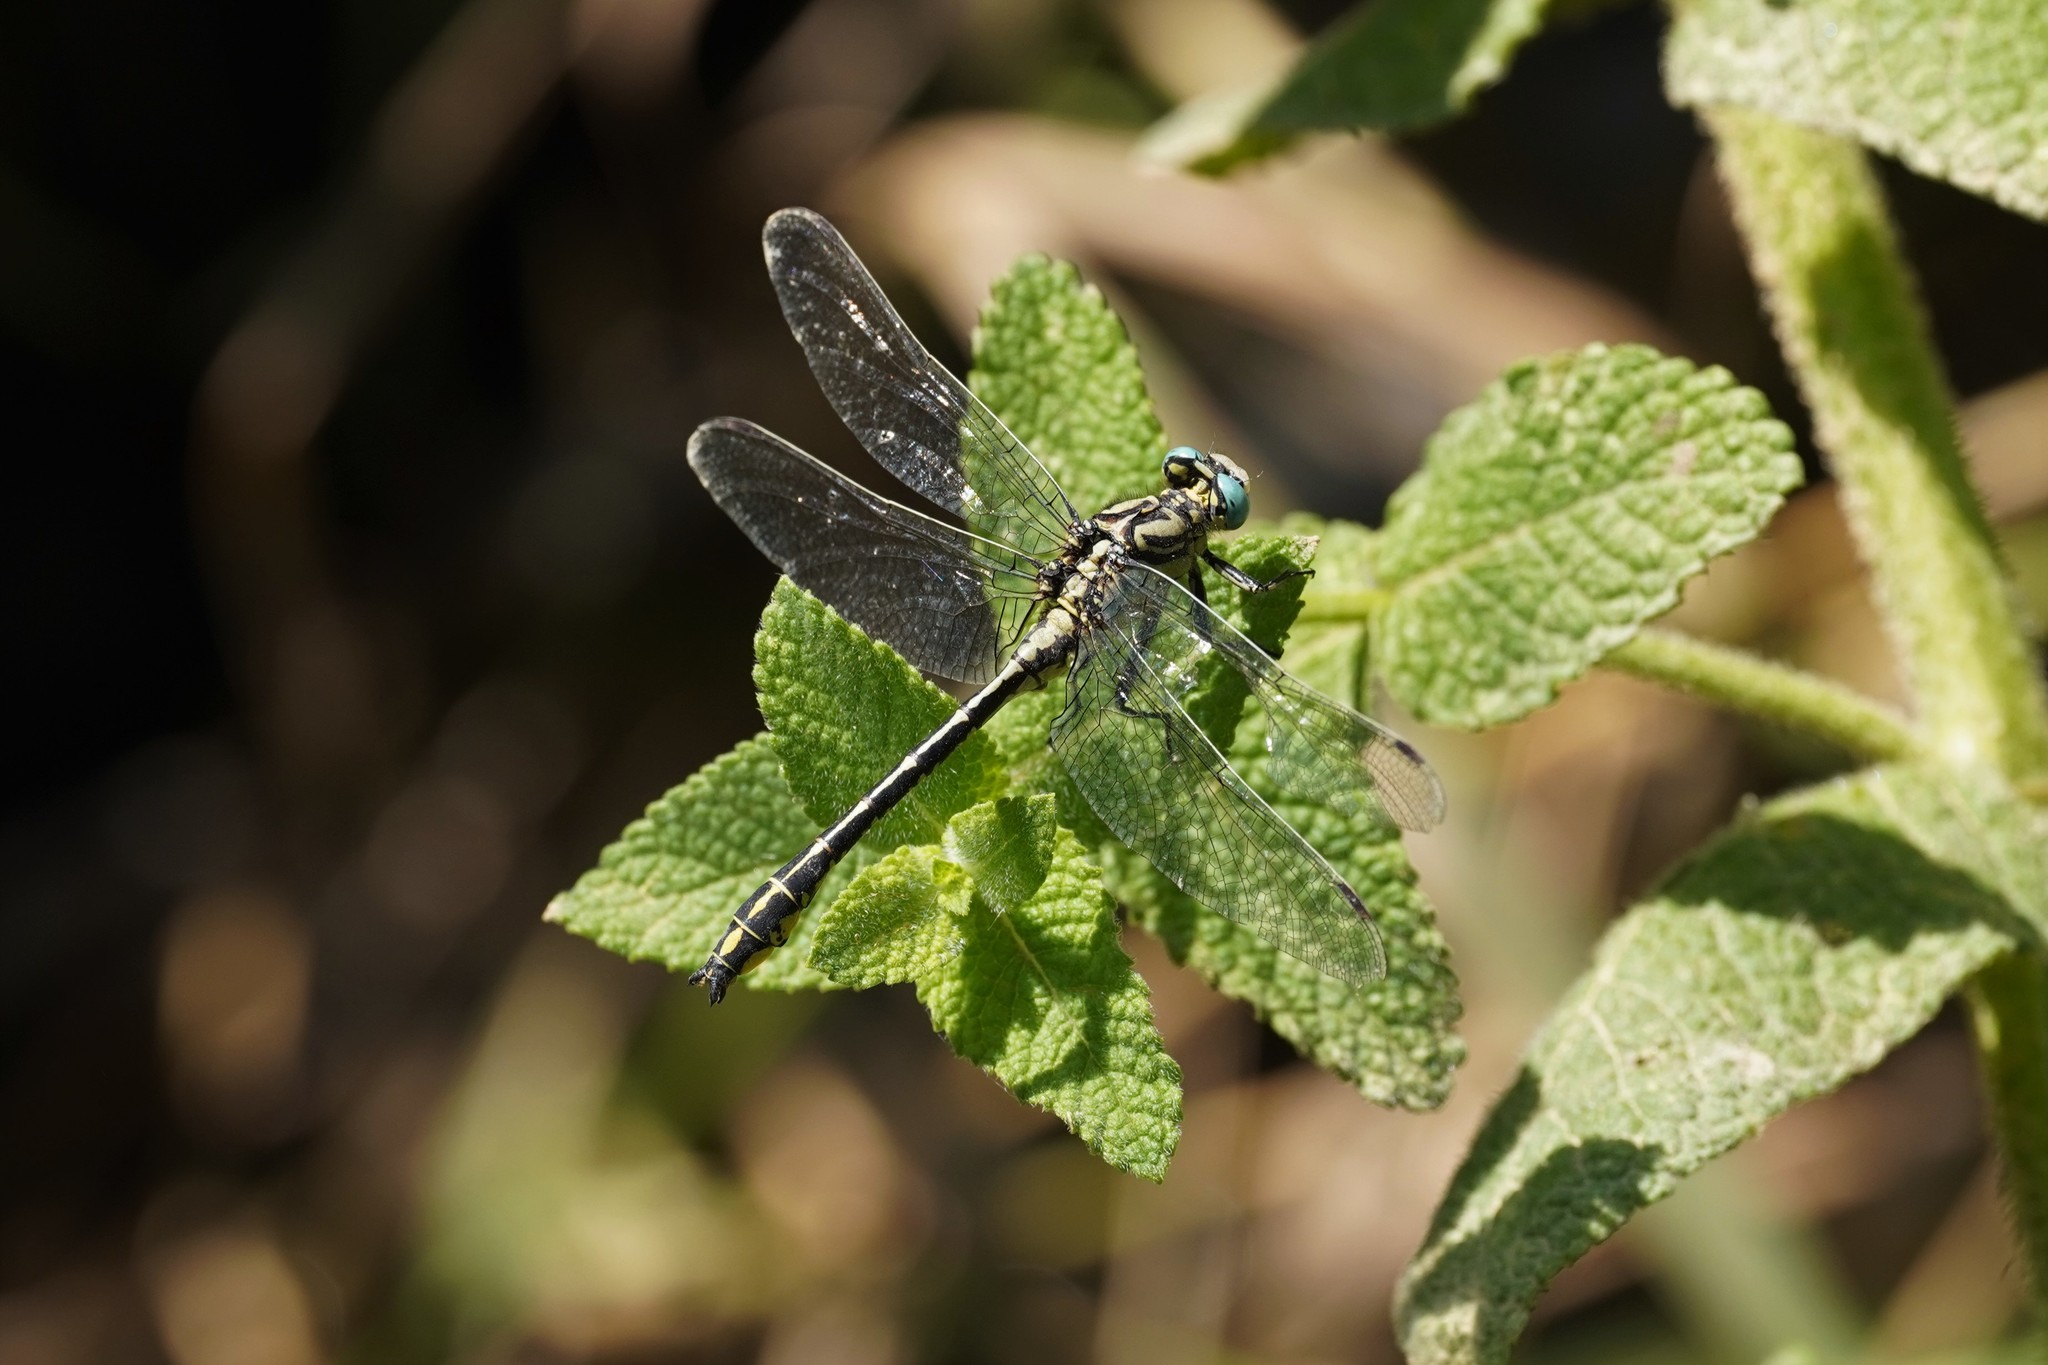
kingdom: Animalia
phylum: Arthropoda
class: Insecta
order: Odonata
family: Gomphidae
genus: Gomphus
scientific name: Gomphus simillimus
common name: Yellow clubtail
